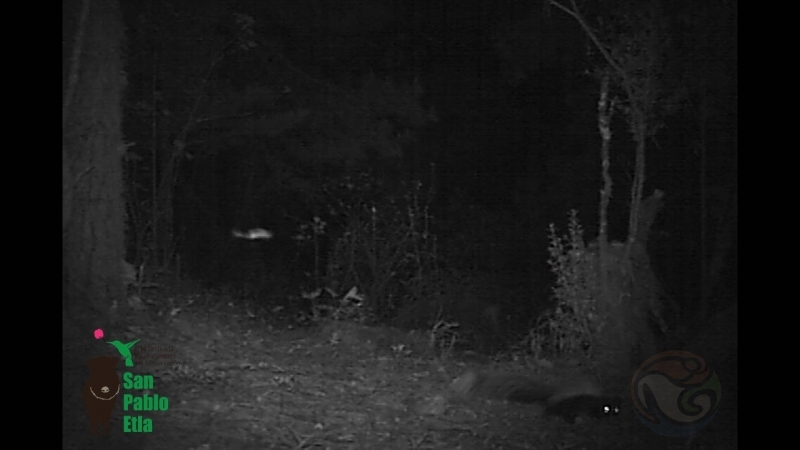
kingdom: Animalia
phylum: Chordata
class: Mammalia
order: Carnivora
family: Mephitidae
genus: Mephitis
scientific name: Mephitis macroura
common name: Hooded skunk
